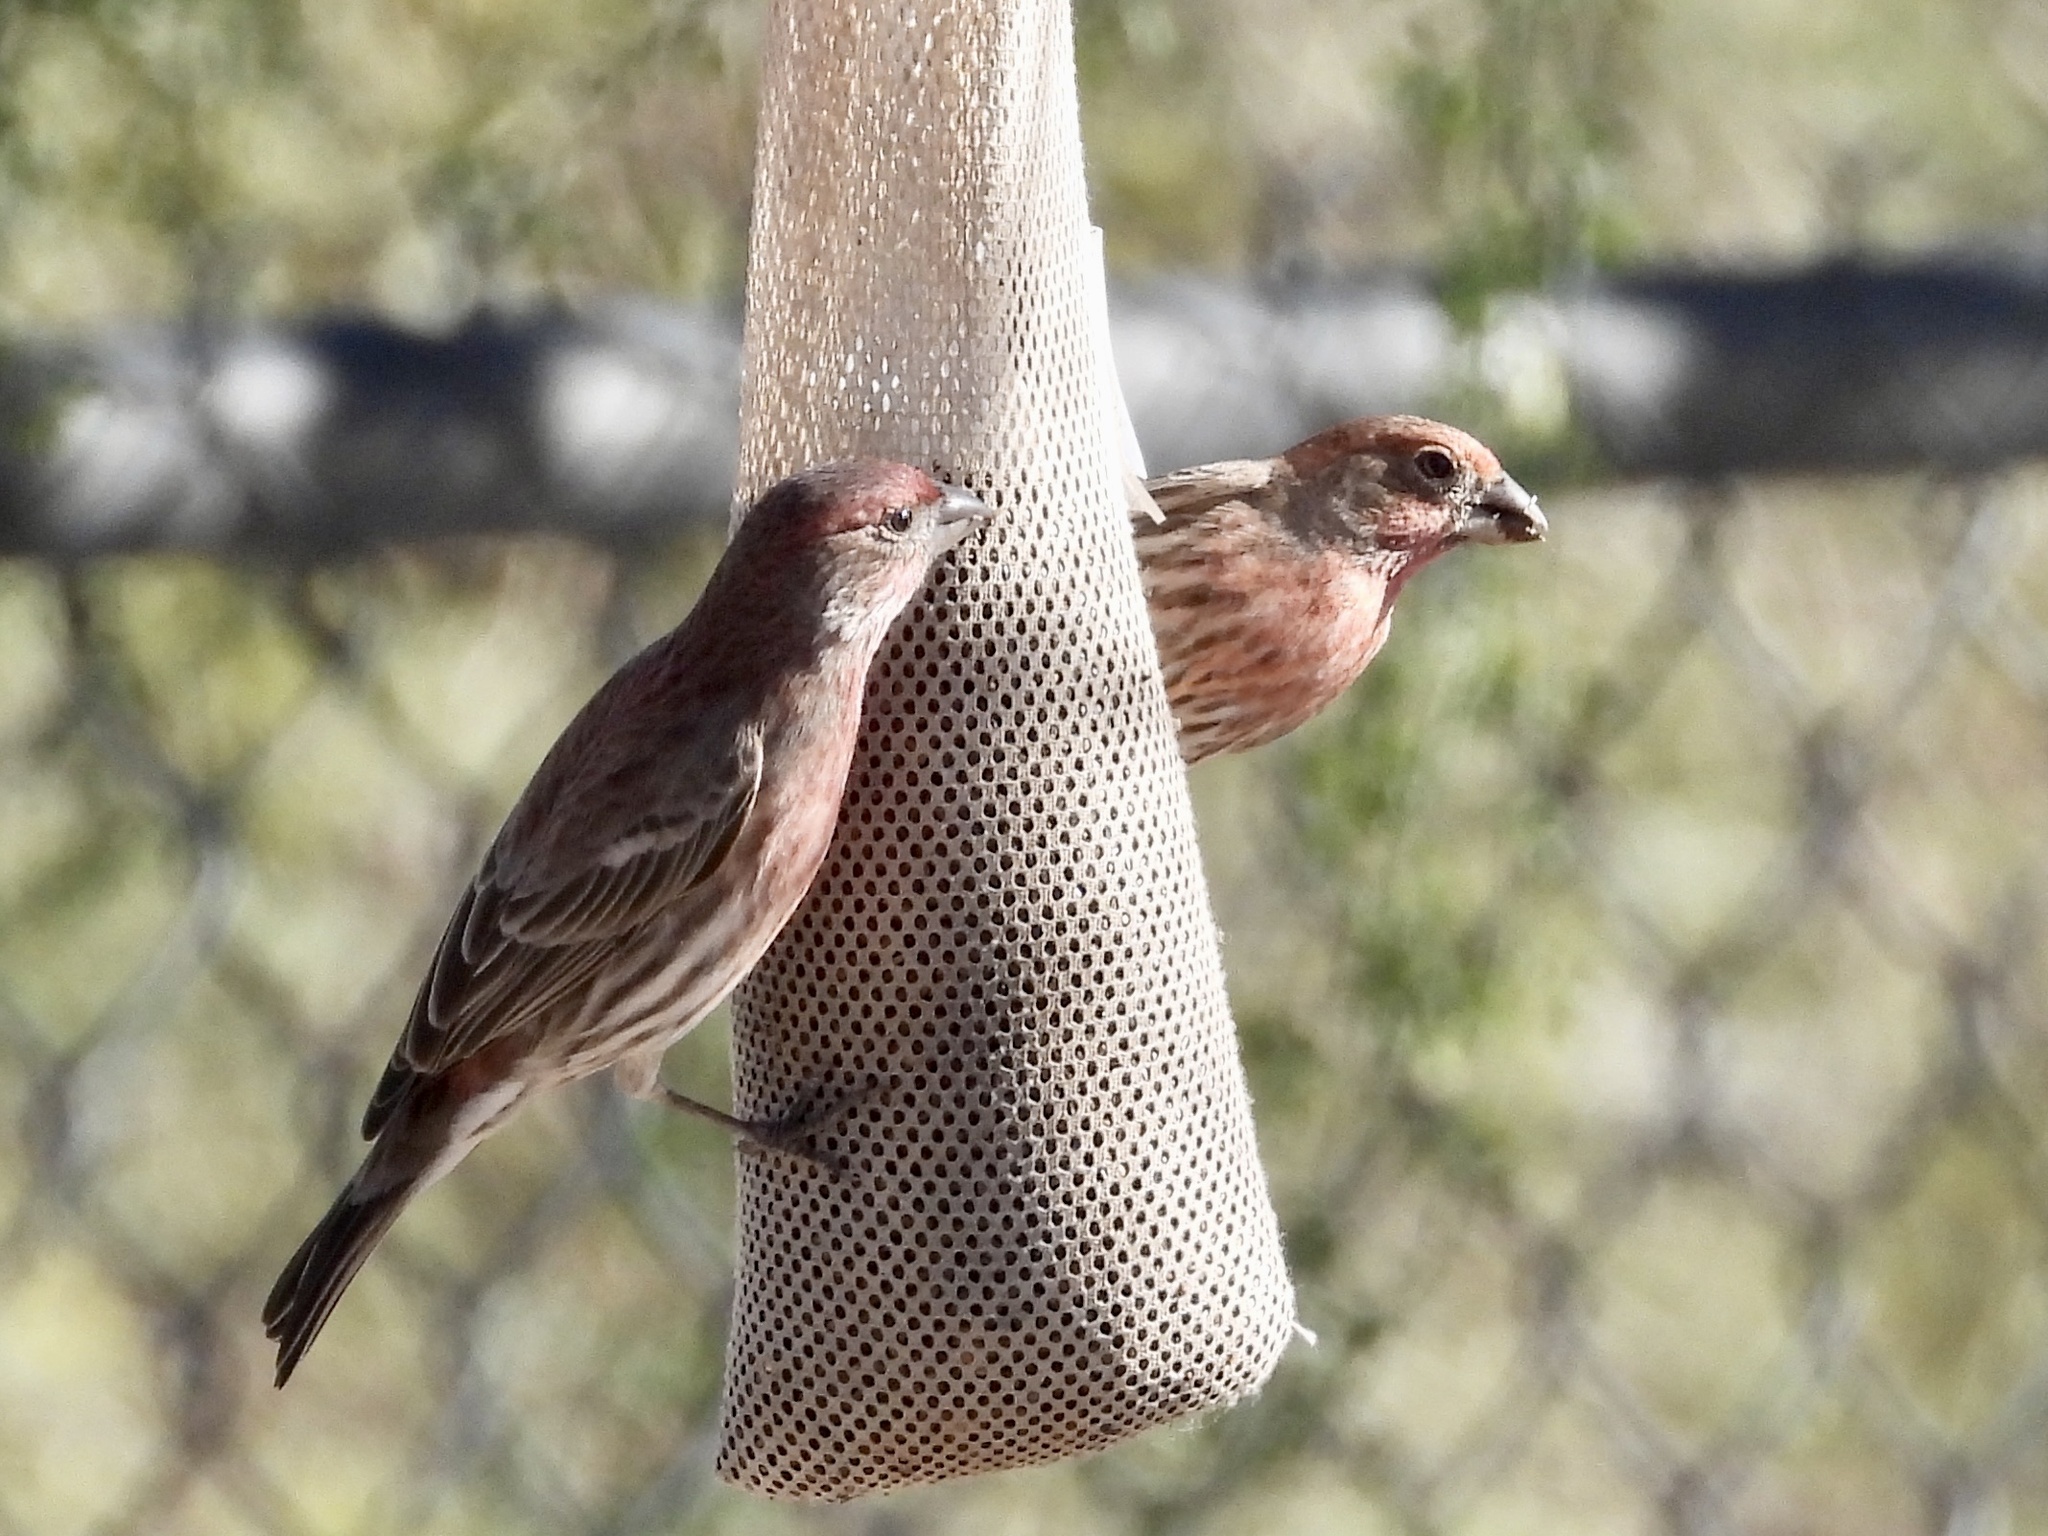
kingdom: Animalia
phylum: Chordata
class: Aves
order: Passeriformes
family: Fringillidae
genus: Haemorhous
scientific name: Haemorhous mexicanus
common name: House finch
